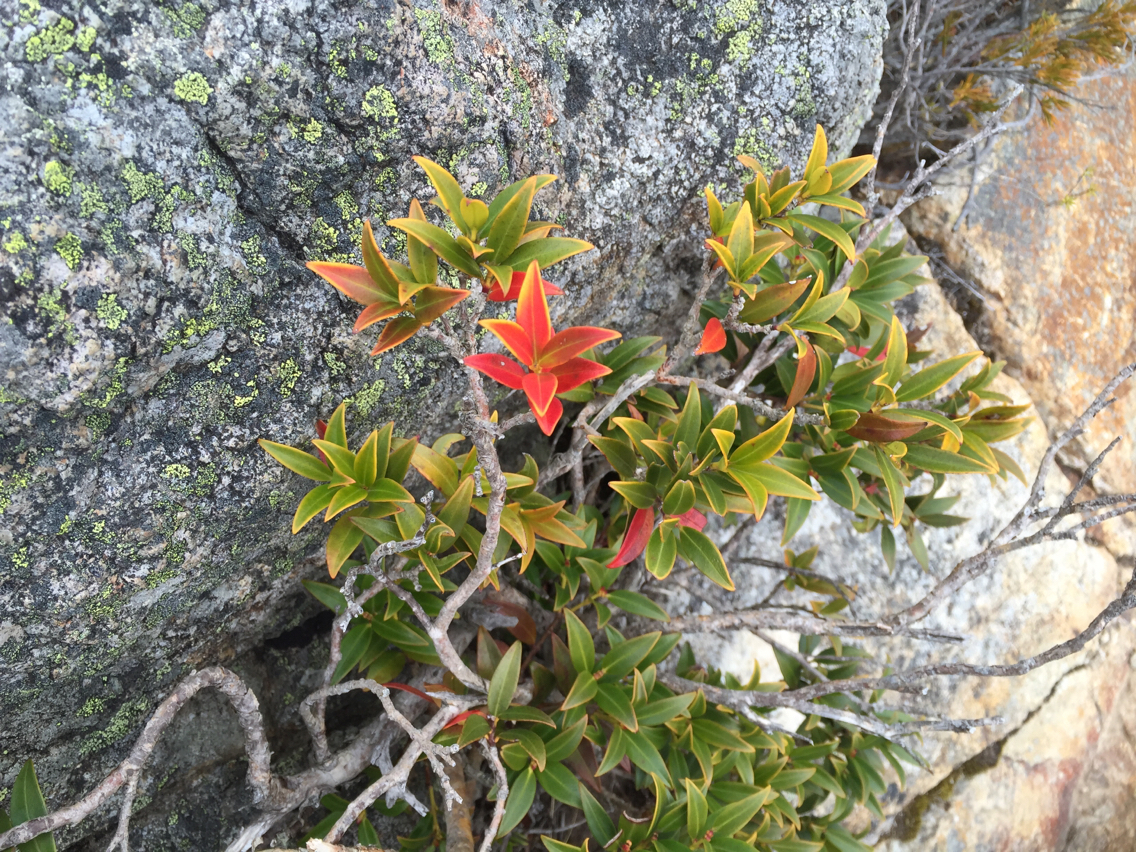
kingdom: Plantae
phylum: Tracheophyta
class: Magnoliopsida
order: Myrtales
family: Myrtaceae
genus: Metrosideros
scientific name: Metrosideros umbellata
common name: Southern rata
